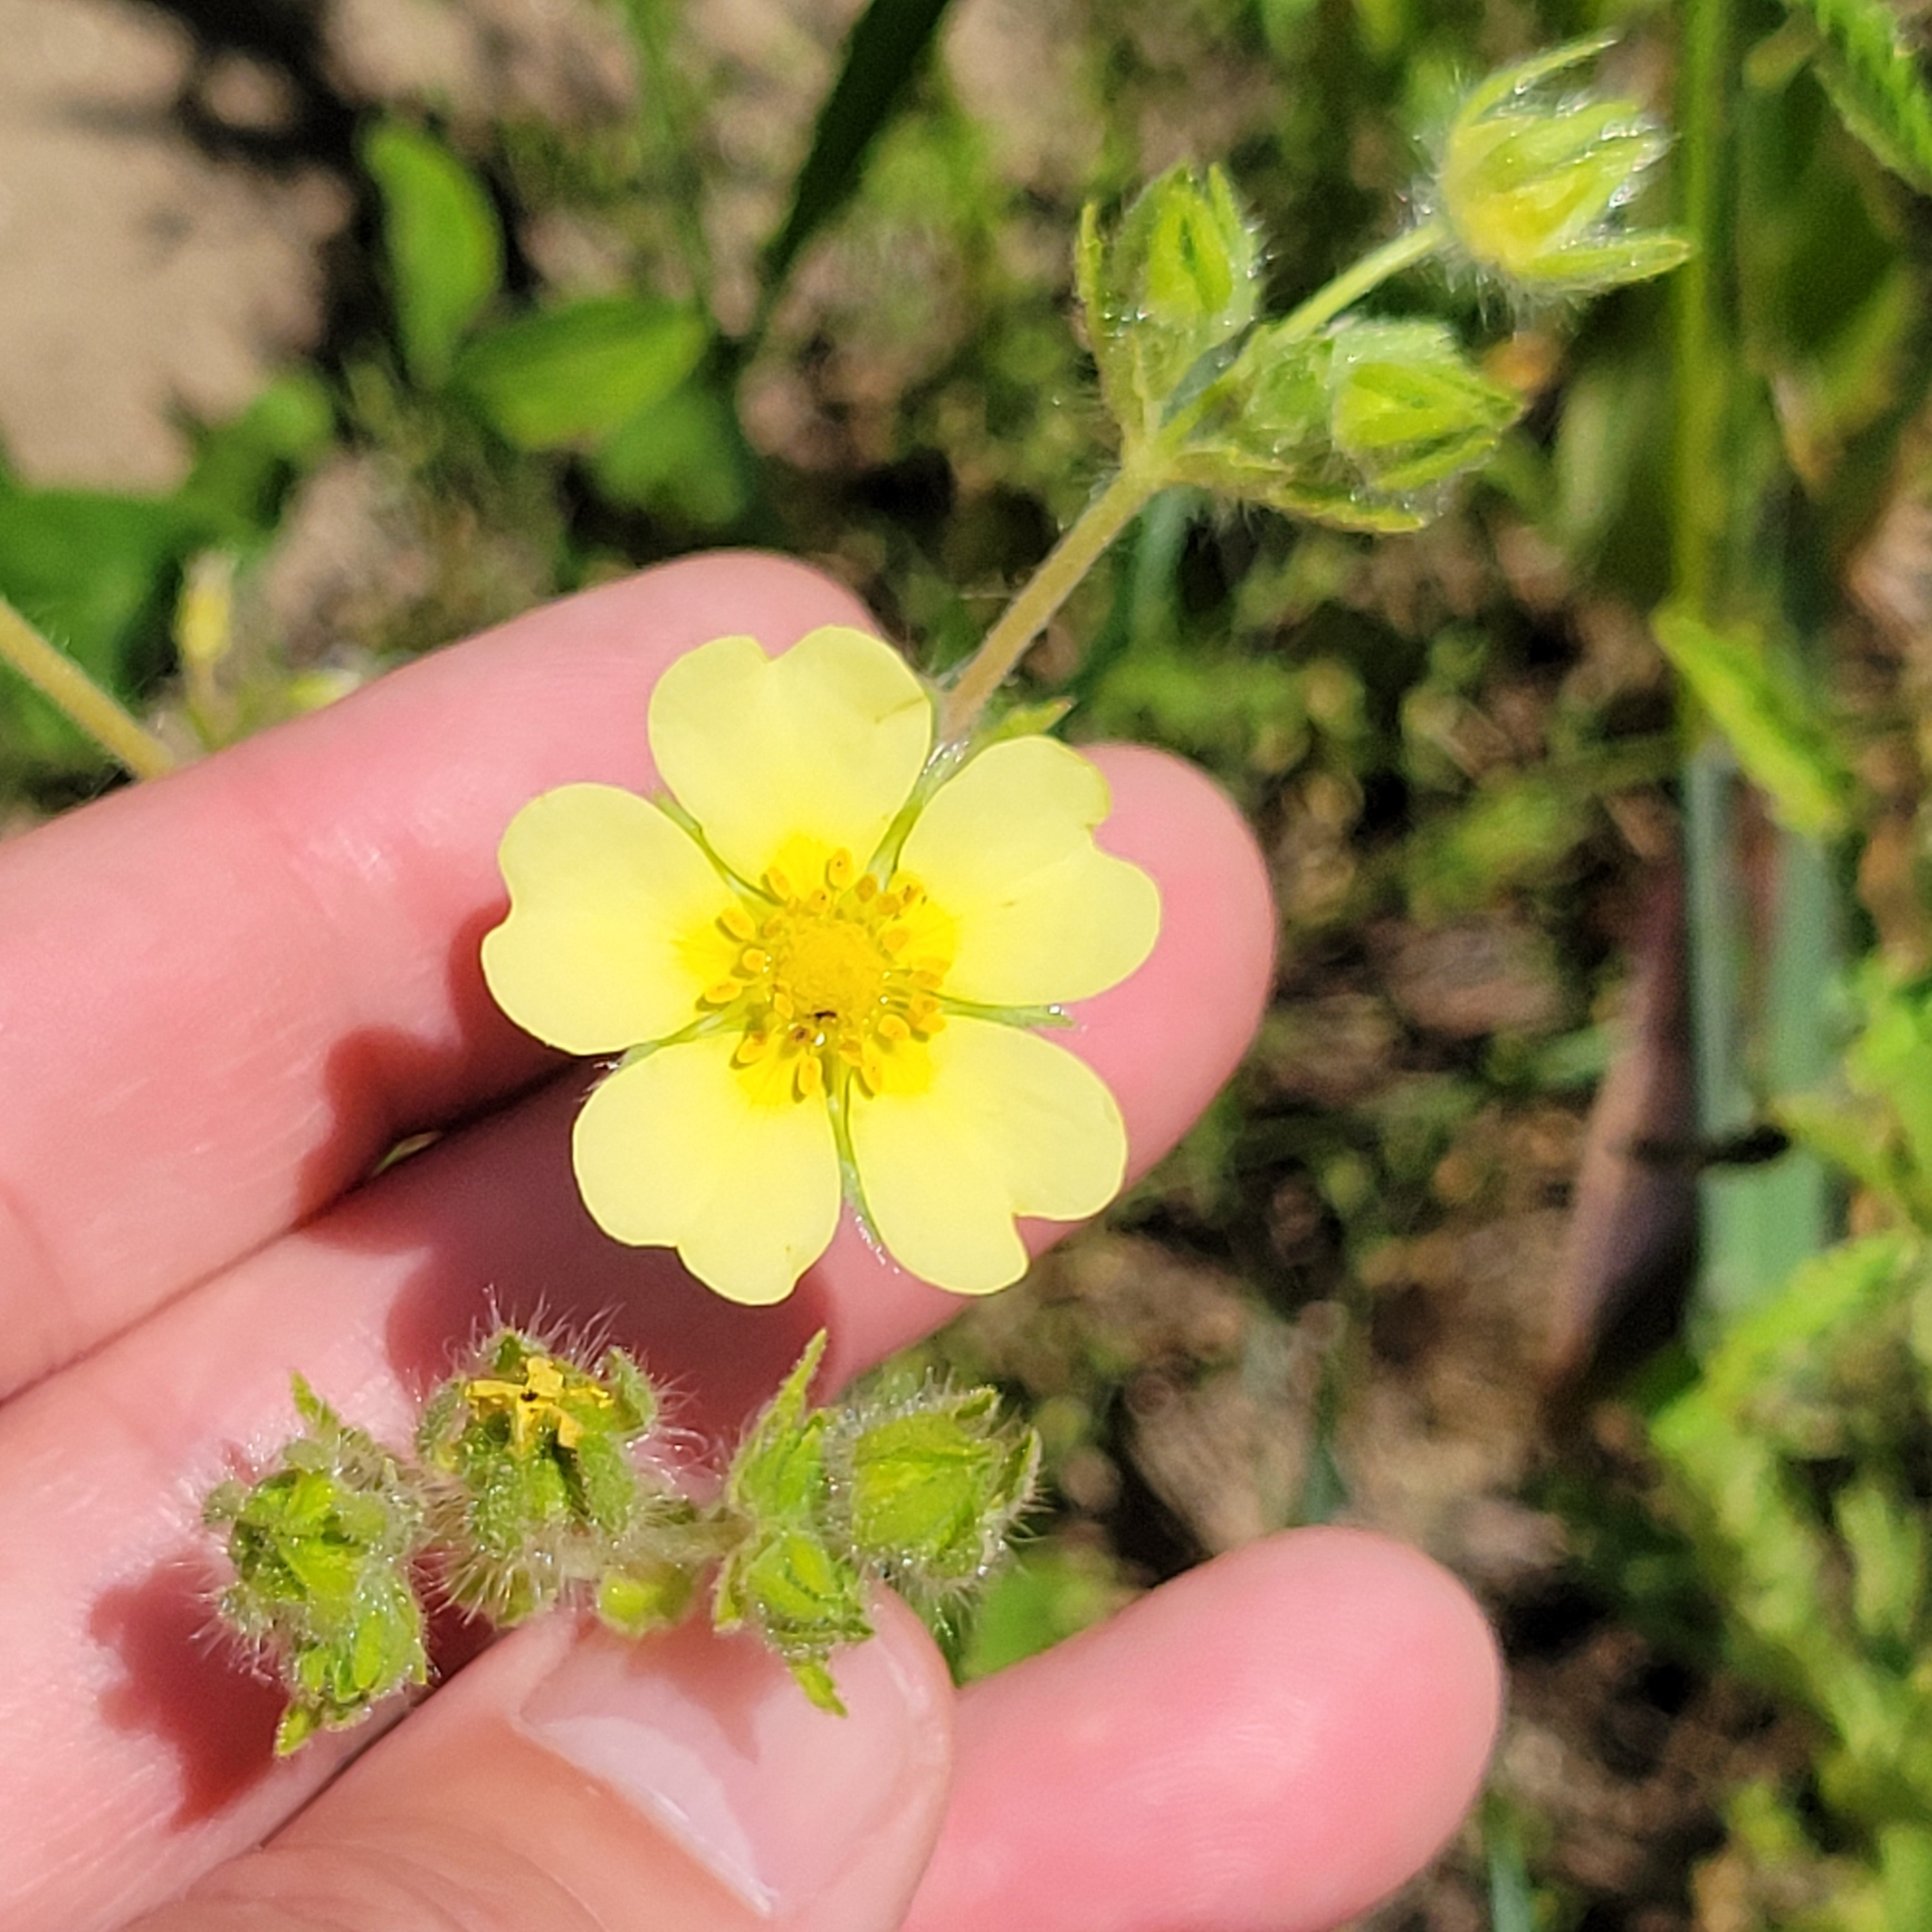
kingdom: Plantae
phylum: Tracheophyta
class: Magnoliopsida
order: Rosales
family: Rosaceae
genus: Potentilla
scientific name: Potentilla recta
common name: Sulphur cinquefoil
